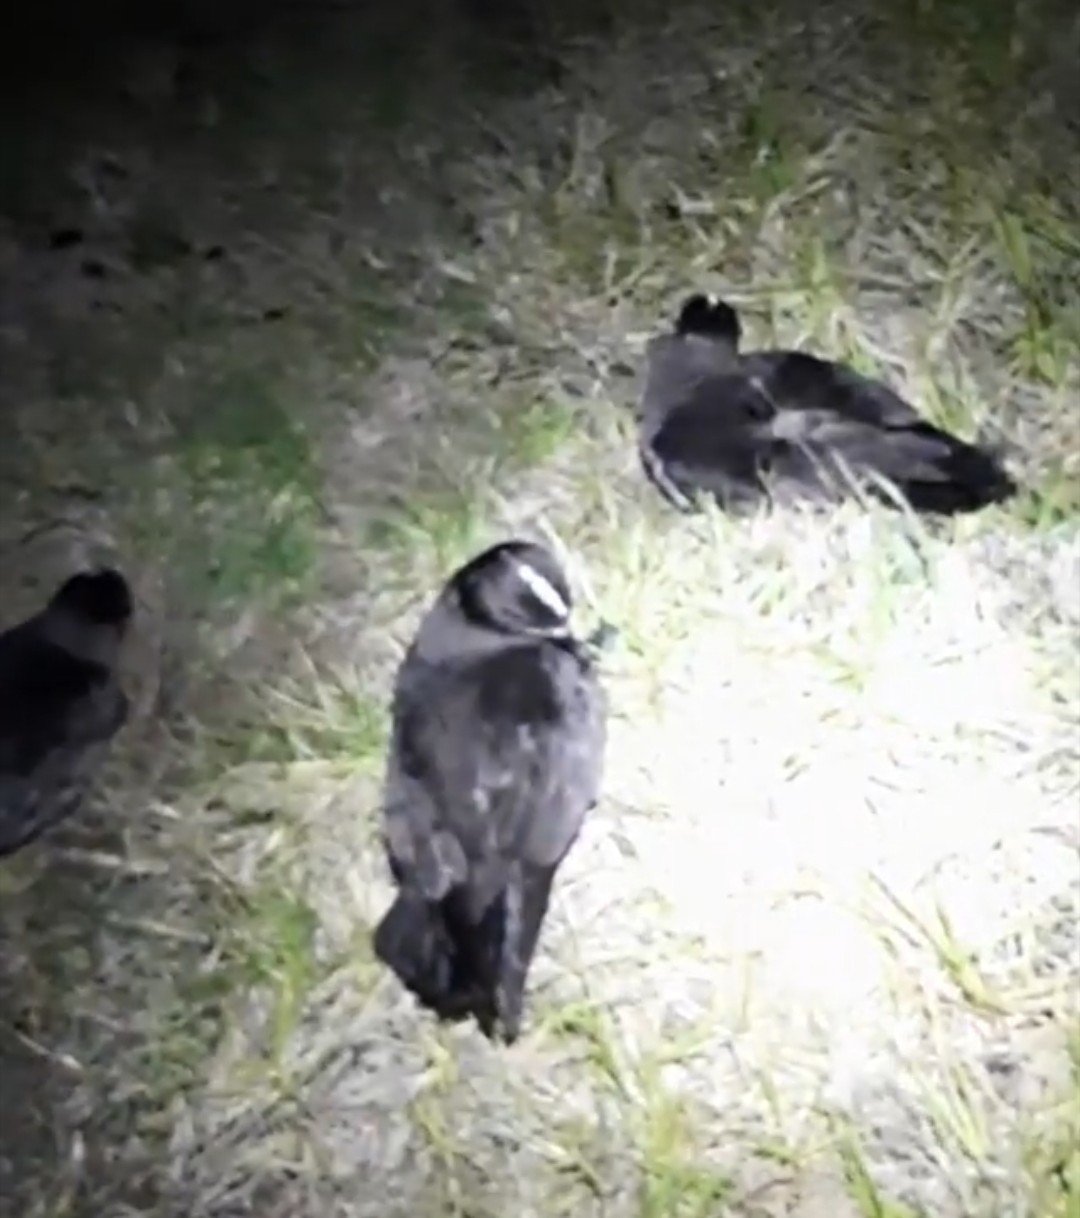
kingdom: Animalia
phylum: Chordata
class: Aves
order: Procellariiformes
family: Procellariidae
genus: Pterodroma
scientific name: Pterodroma macroptera
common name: Great-winged petrel
